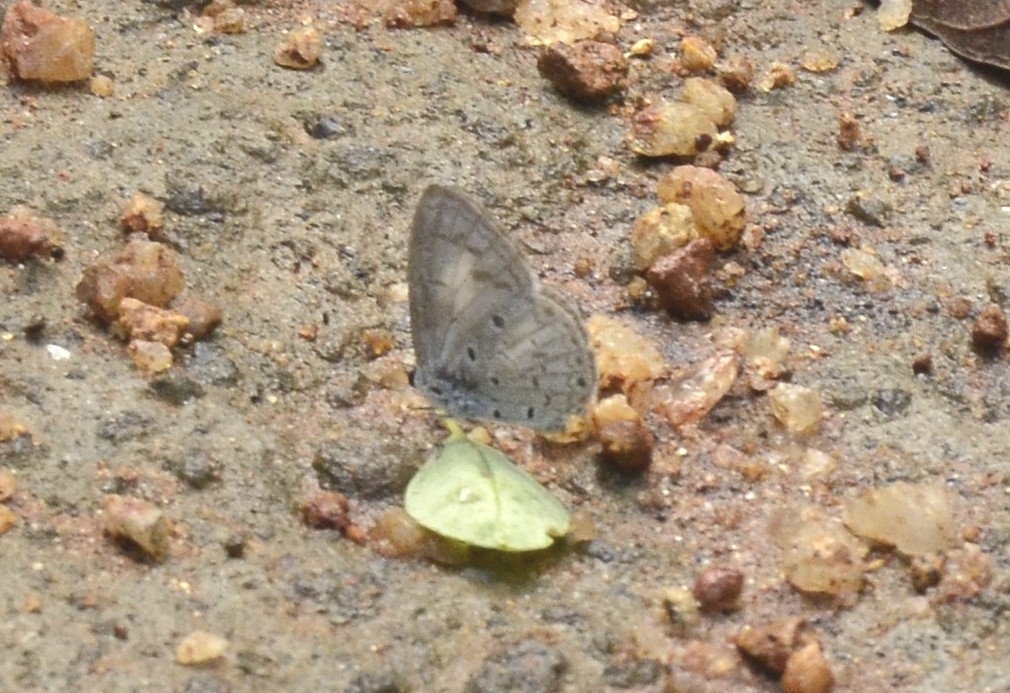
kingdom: Animalia
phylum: Arthropoda
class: Insecta
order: Lepidoptera
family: Lycaenidae
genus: Acytolepis
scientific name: Acytolepis puspa
